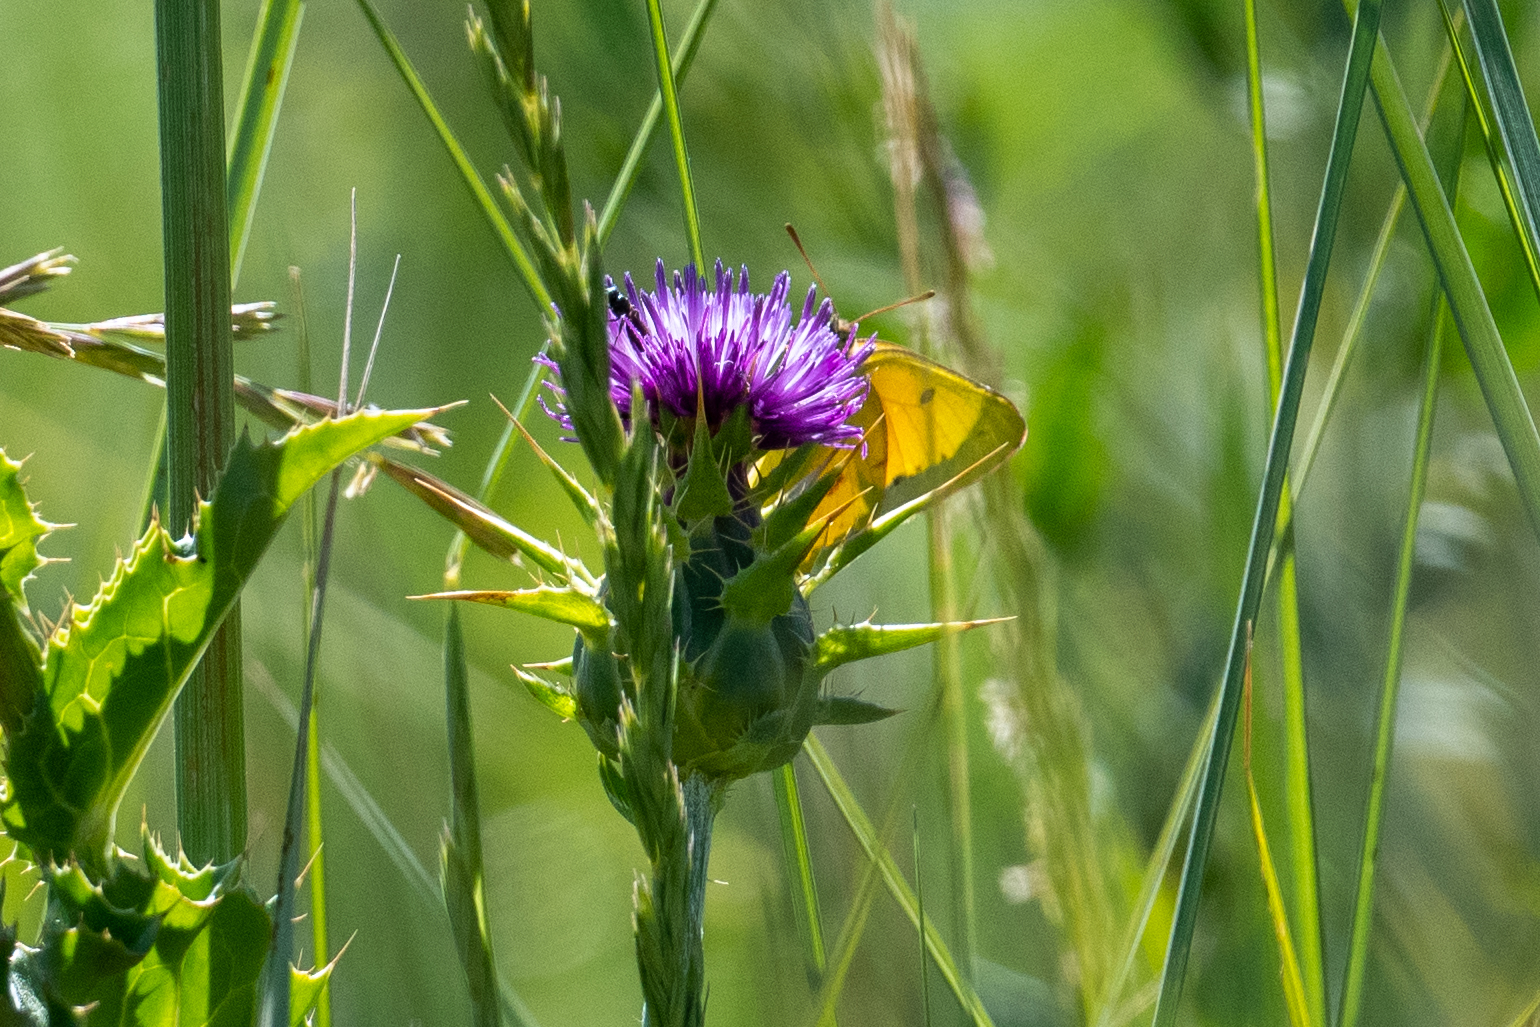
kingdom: Animalia
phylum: Arthropoda
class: Insecta
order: Lepidoptera
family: Pieridae
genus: Colias
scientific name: Colias eurytheme
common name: Alfalfa butterfly
